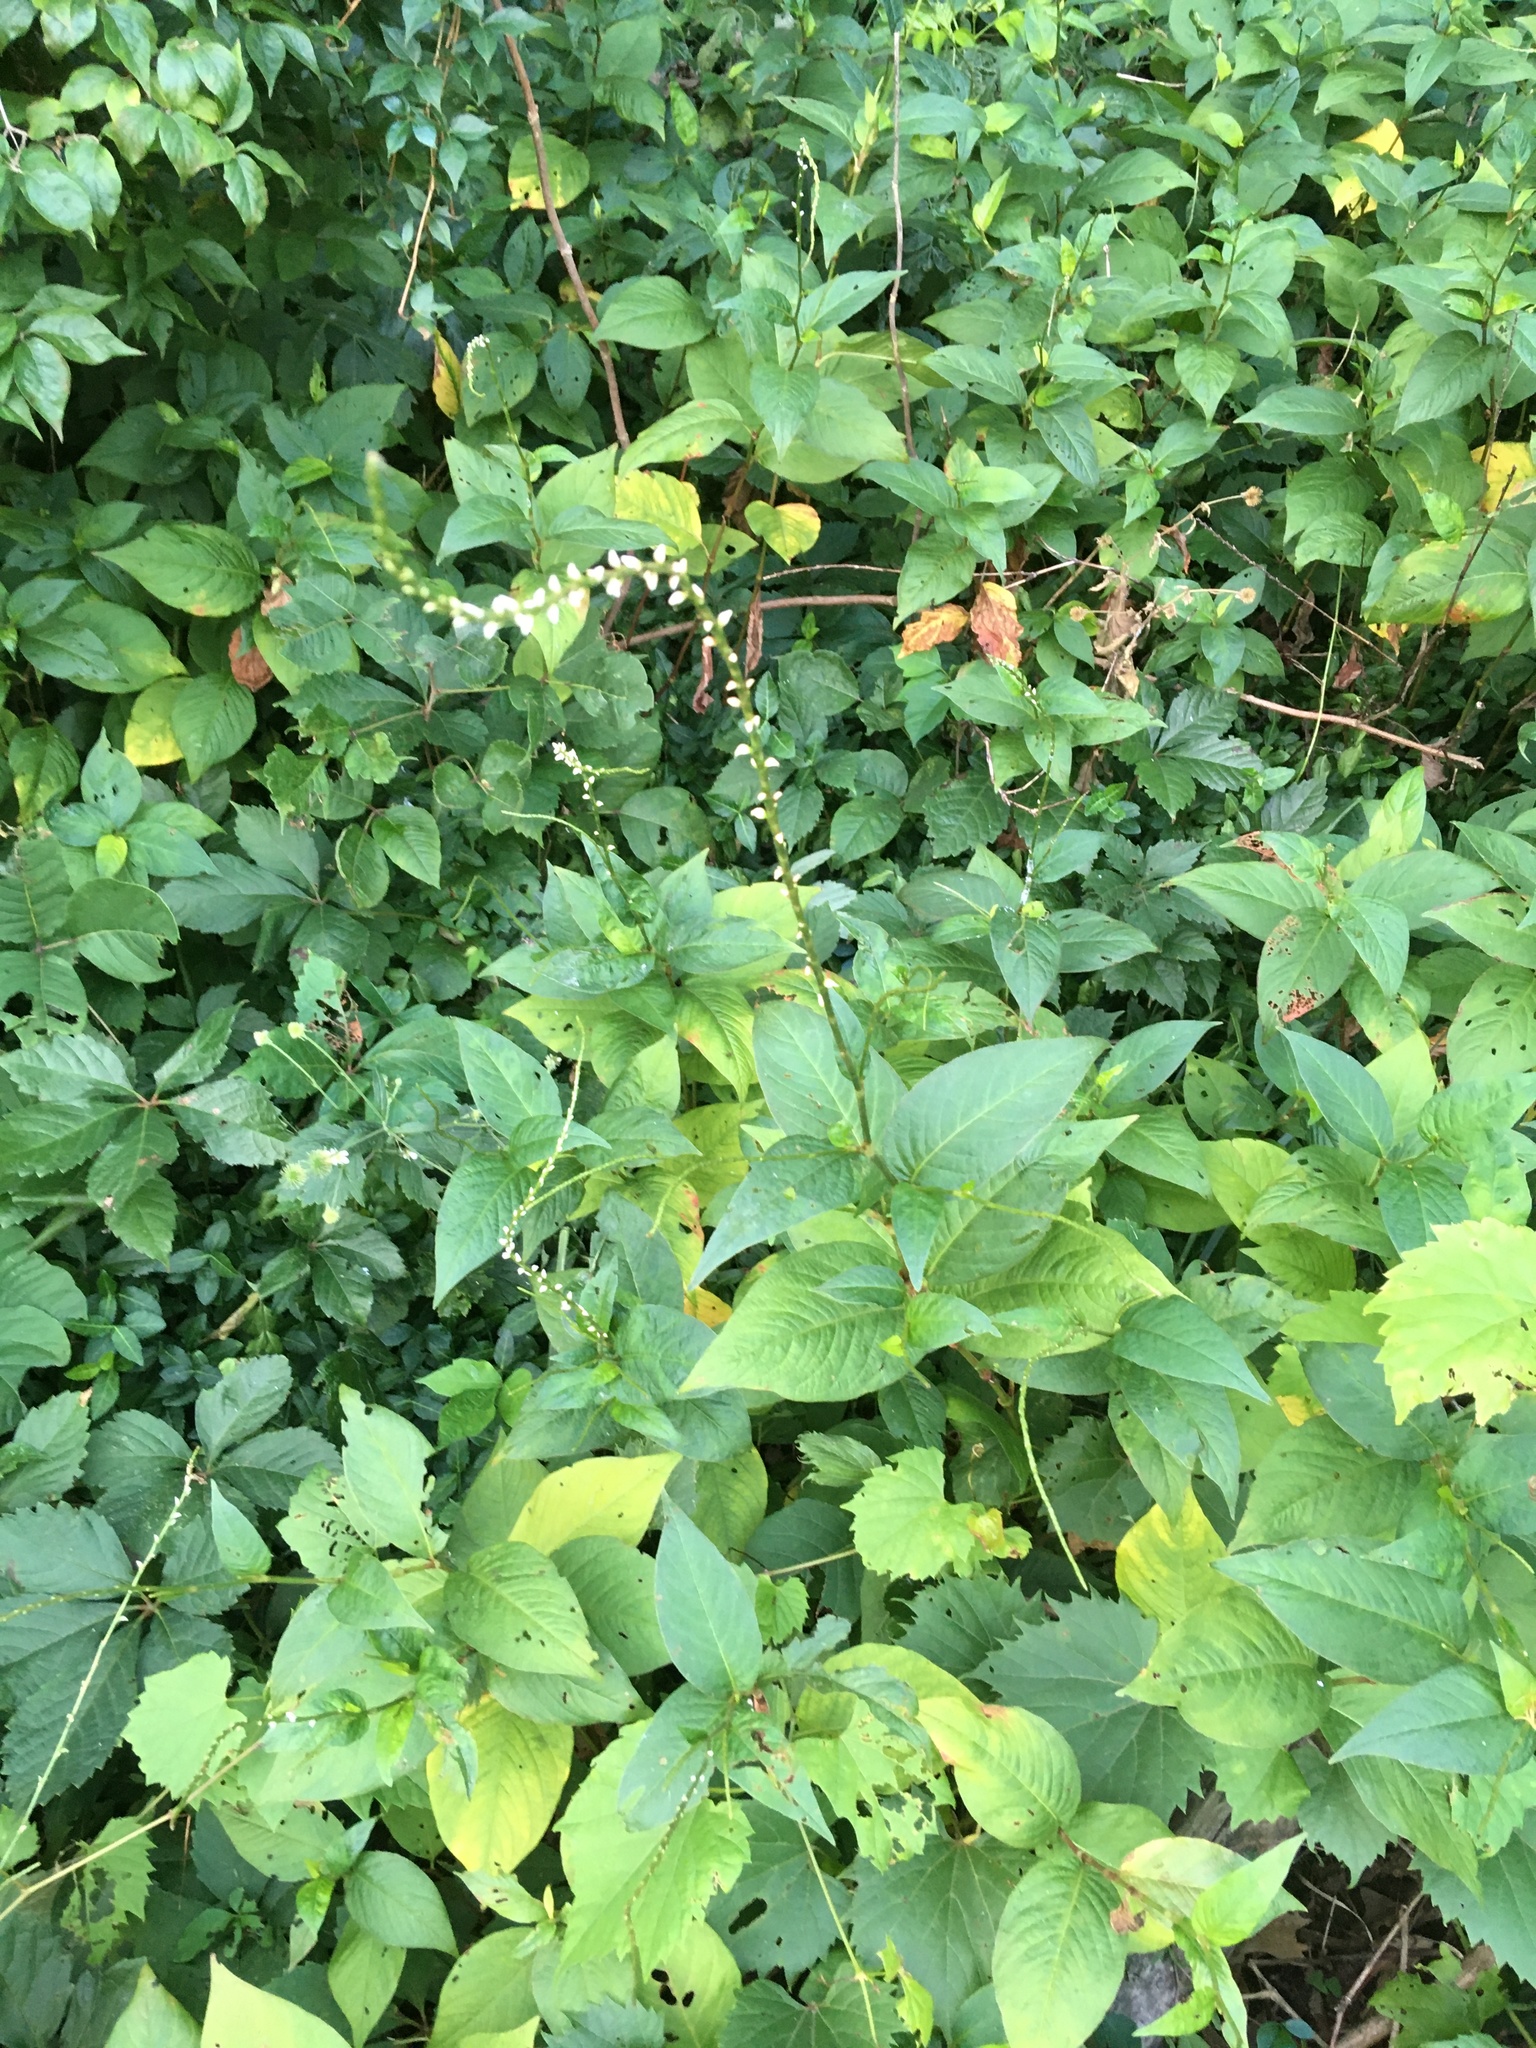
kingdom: Plantae
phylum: Tracheophyta
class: Magnoliopsida
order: Caryophyllales
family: Polygonaceae
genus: Persicaria
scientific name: Persicaria virginiana
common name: Jumpseed
